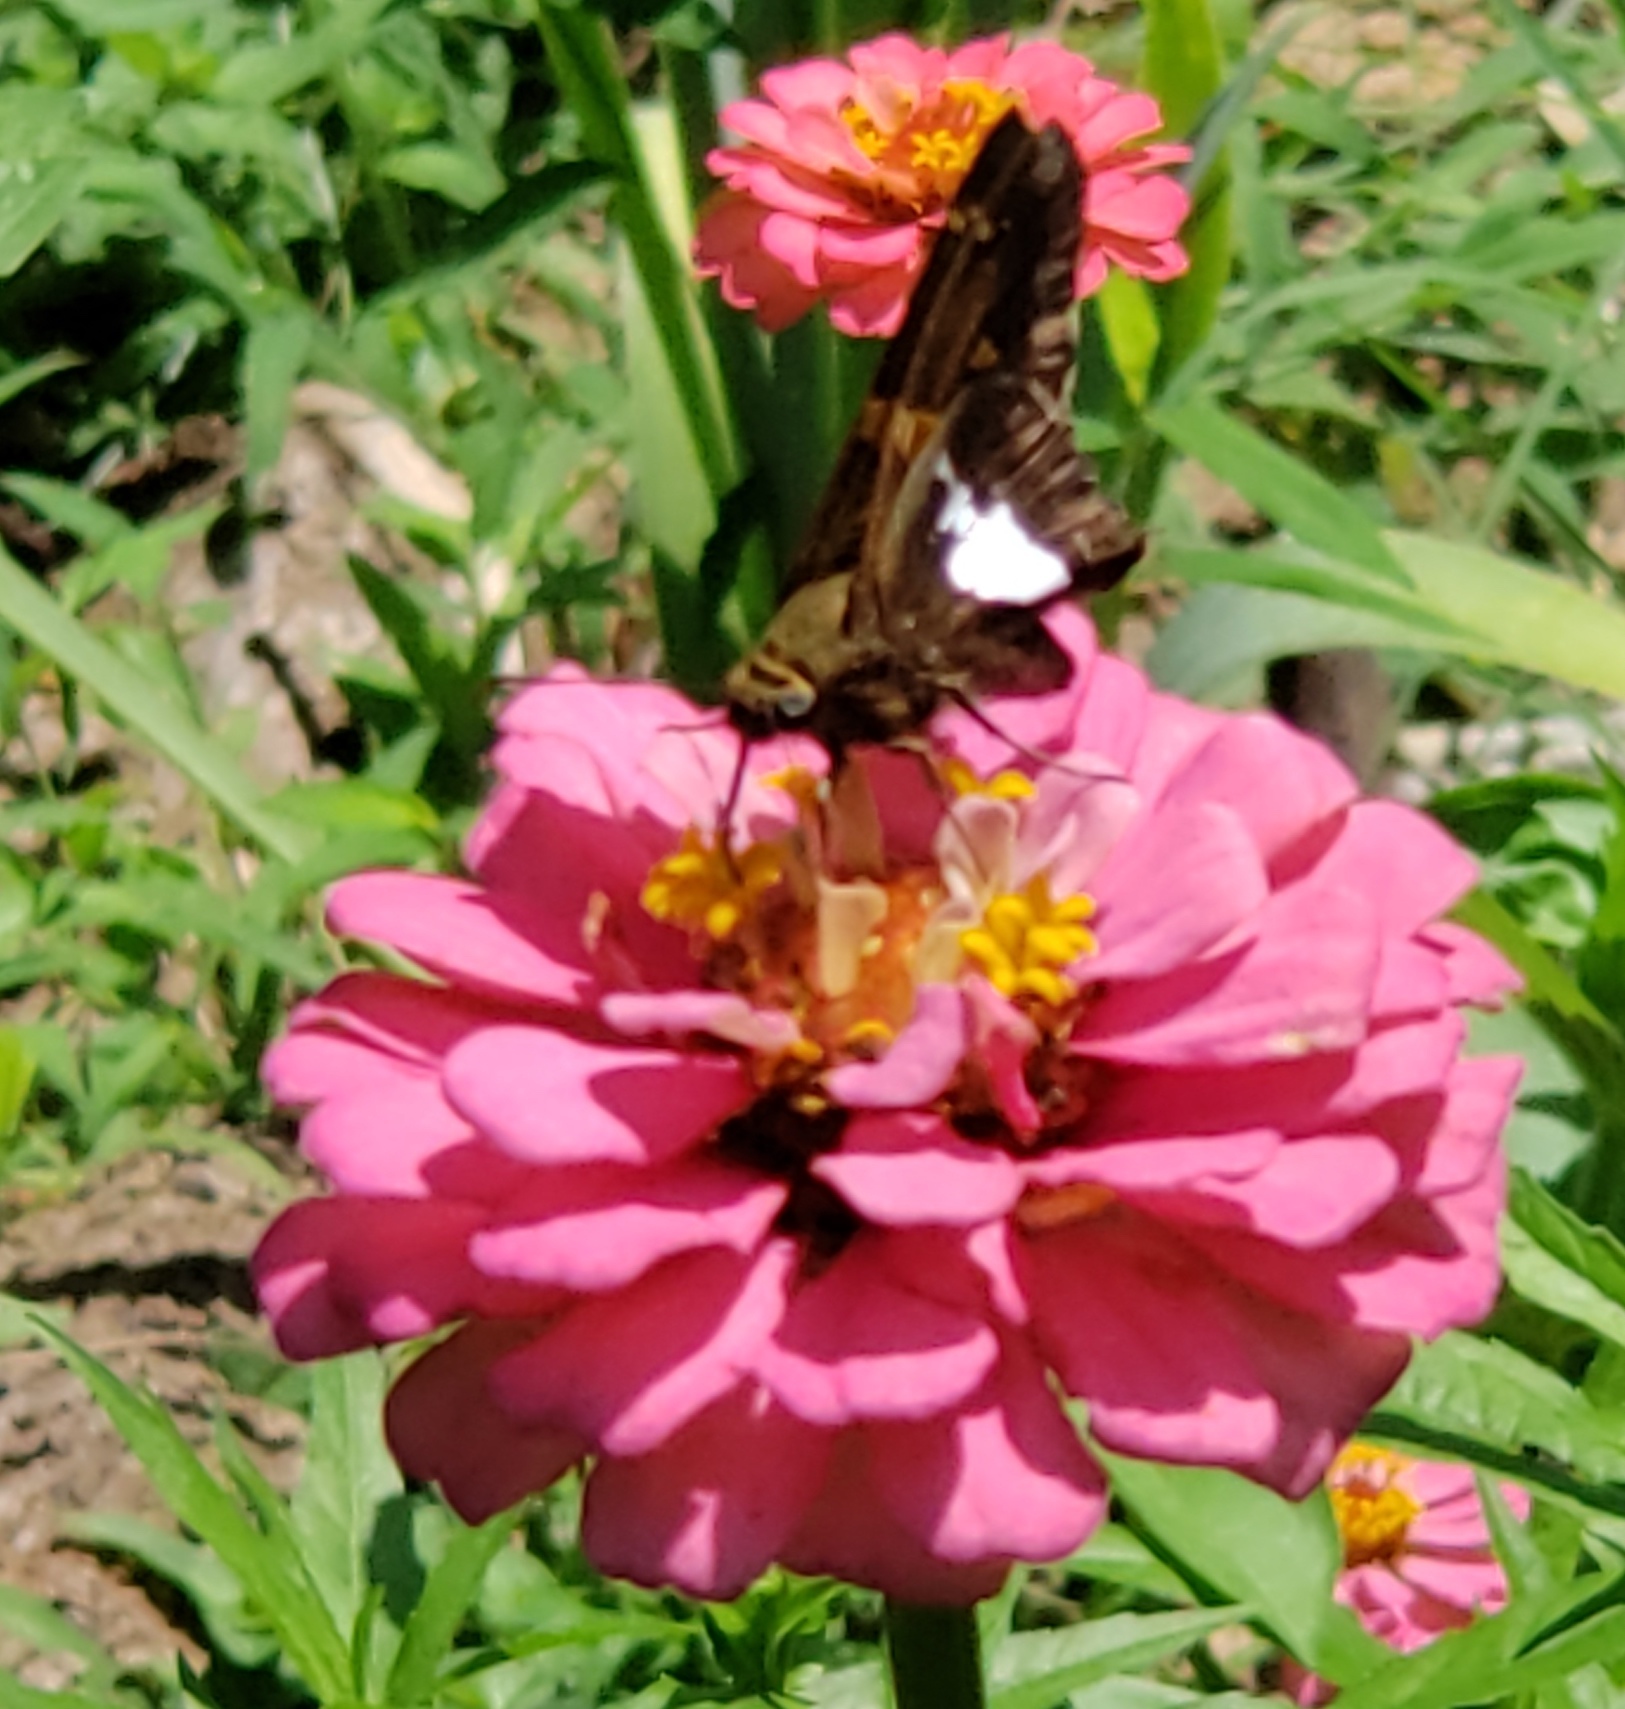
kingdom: Animalia
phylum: Arthropoda
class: Insecta
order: Lepidoptera
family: Hesperiidae
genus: Epargyreus
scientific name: Epargyreus clarus
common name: Silver-spotted skipper
